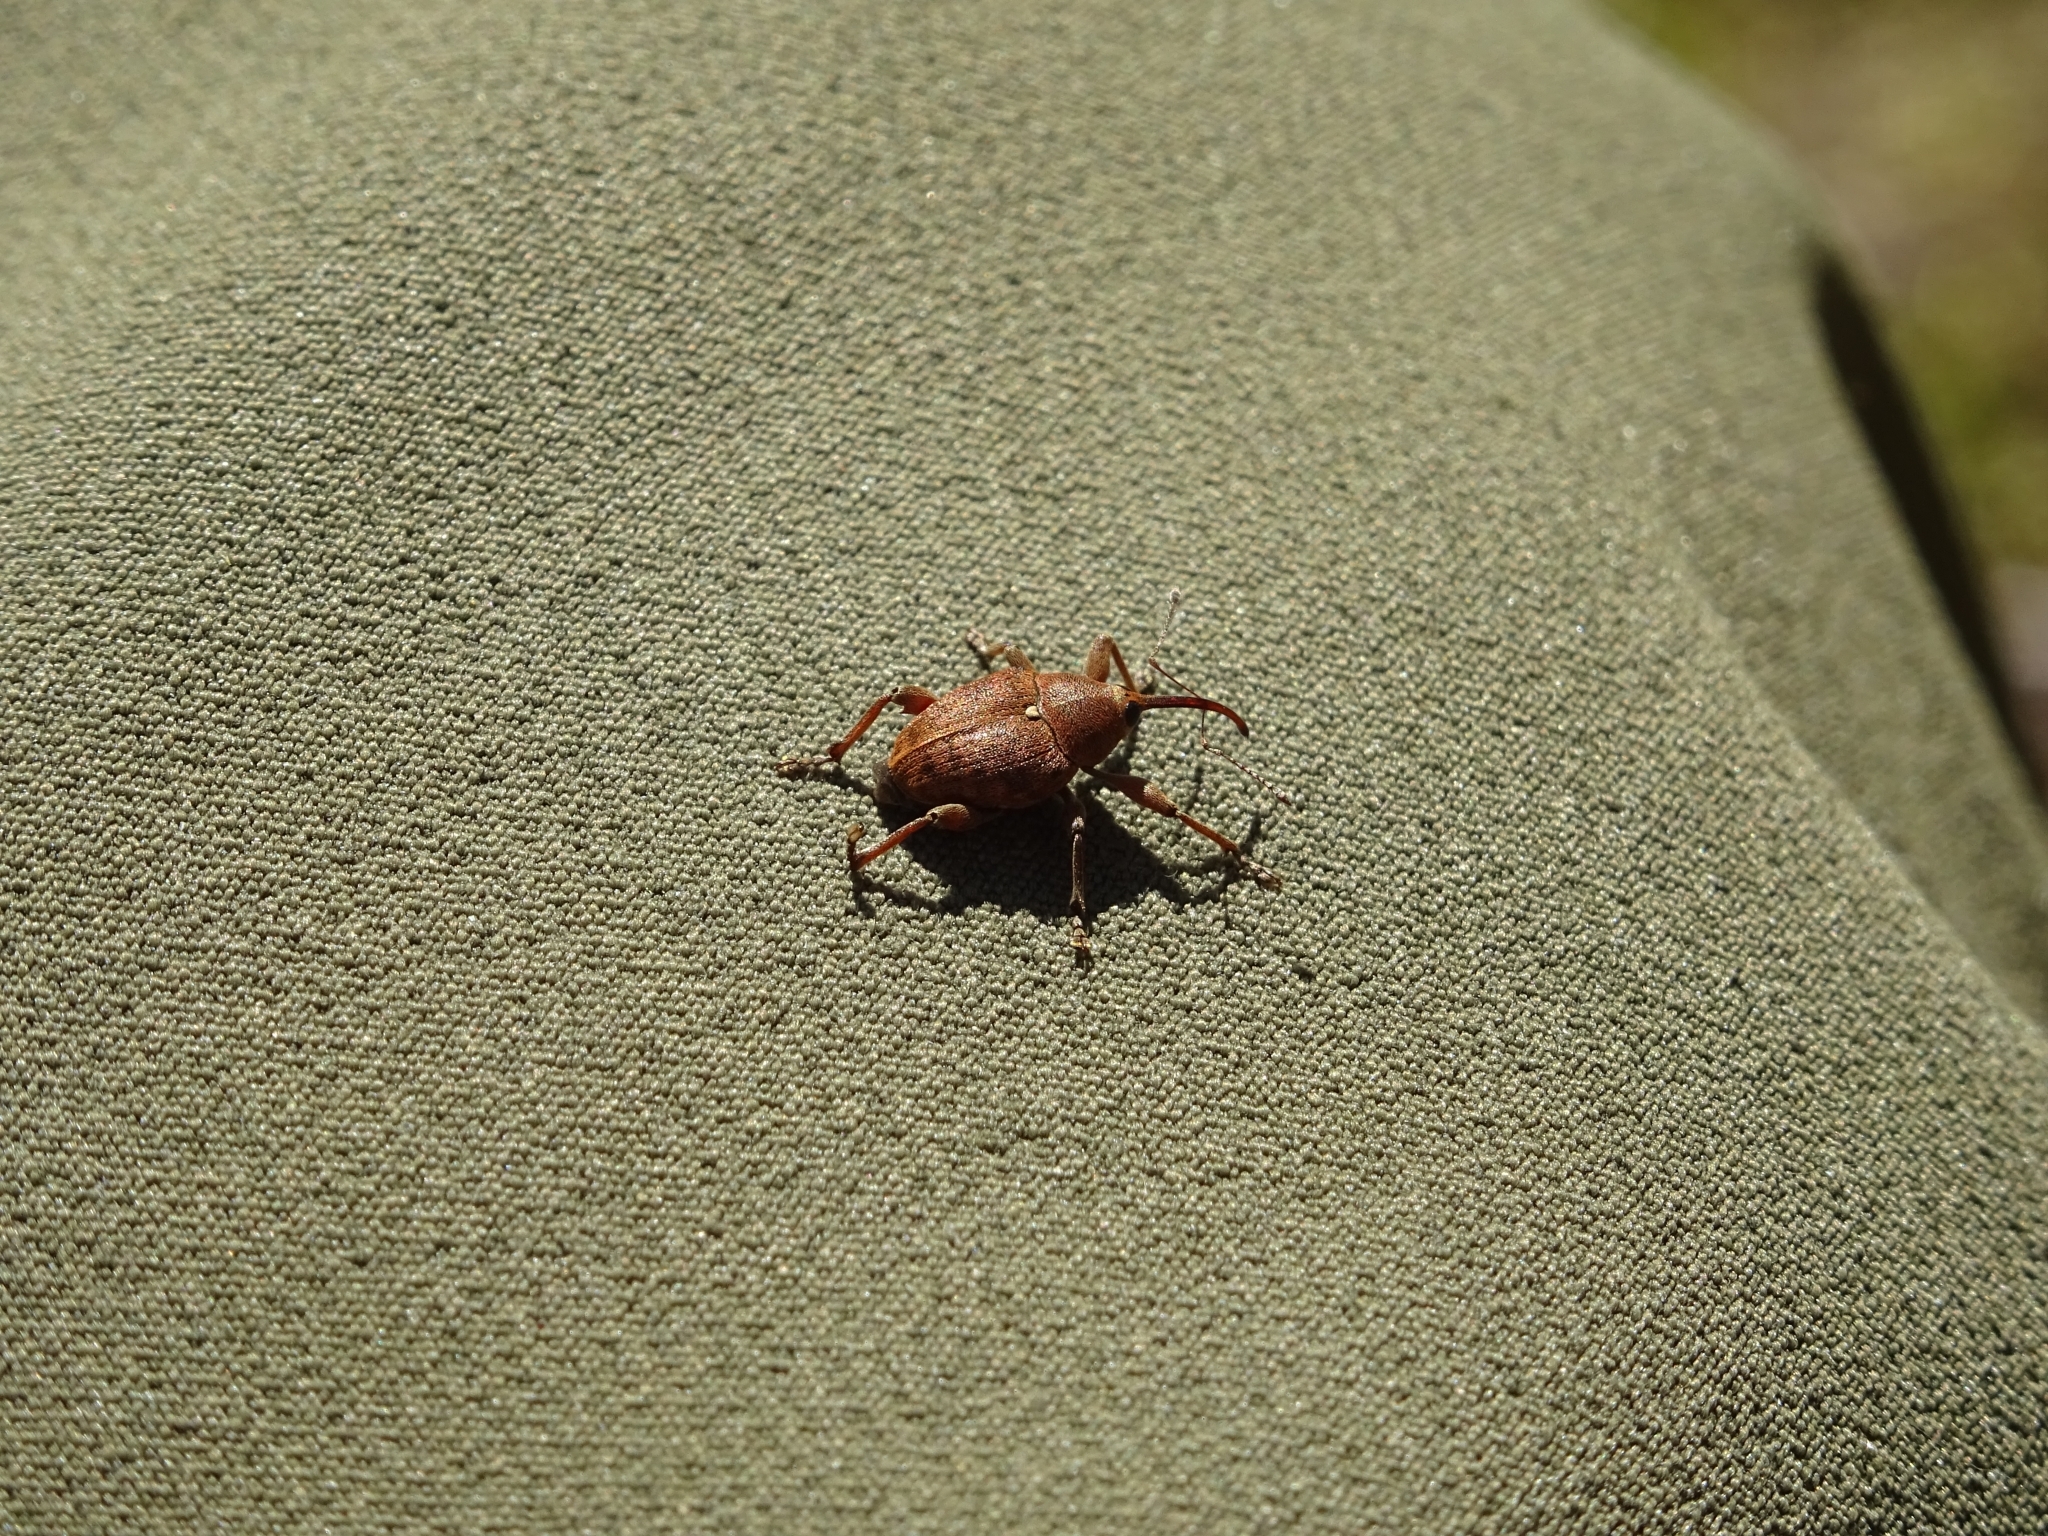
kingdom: Animalia
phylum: Arthropoda
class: Insecta
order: Coleoptera
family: Curculionidae
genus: Curculio
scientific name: Curculio nucum
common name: Nut weevil
